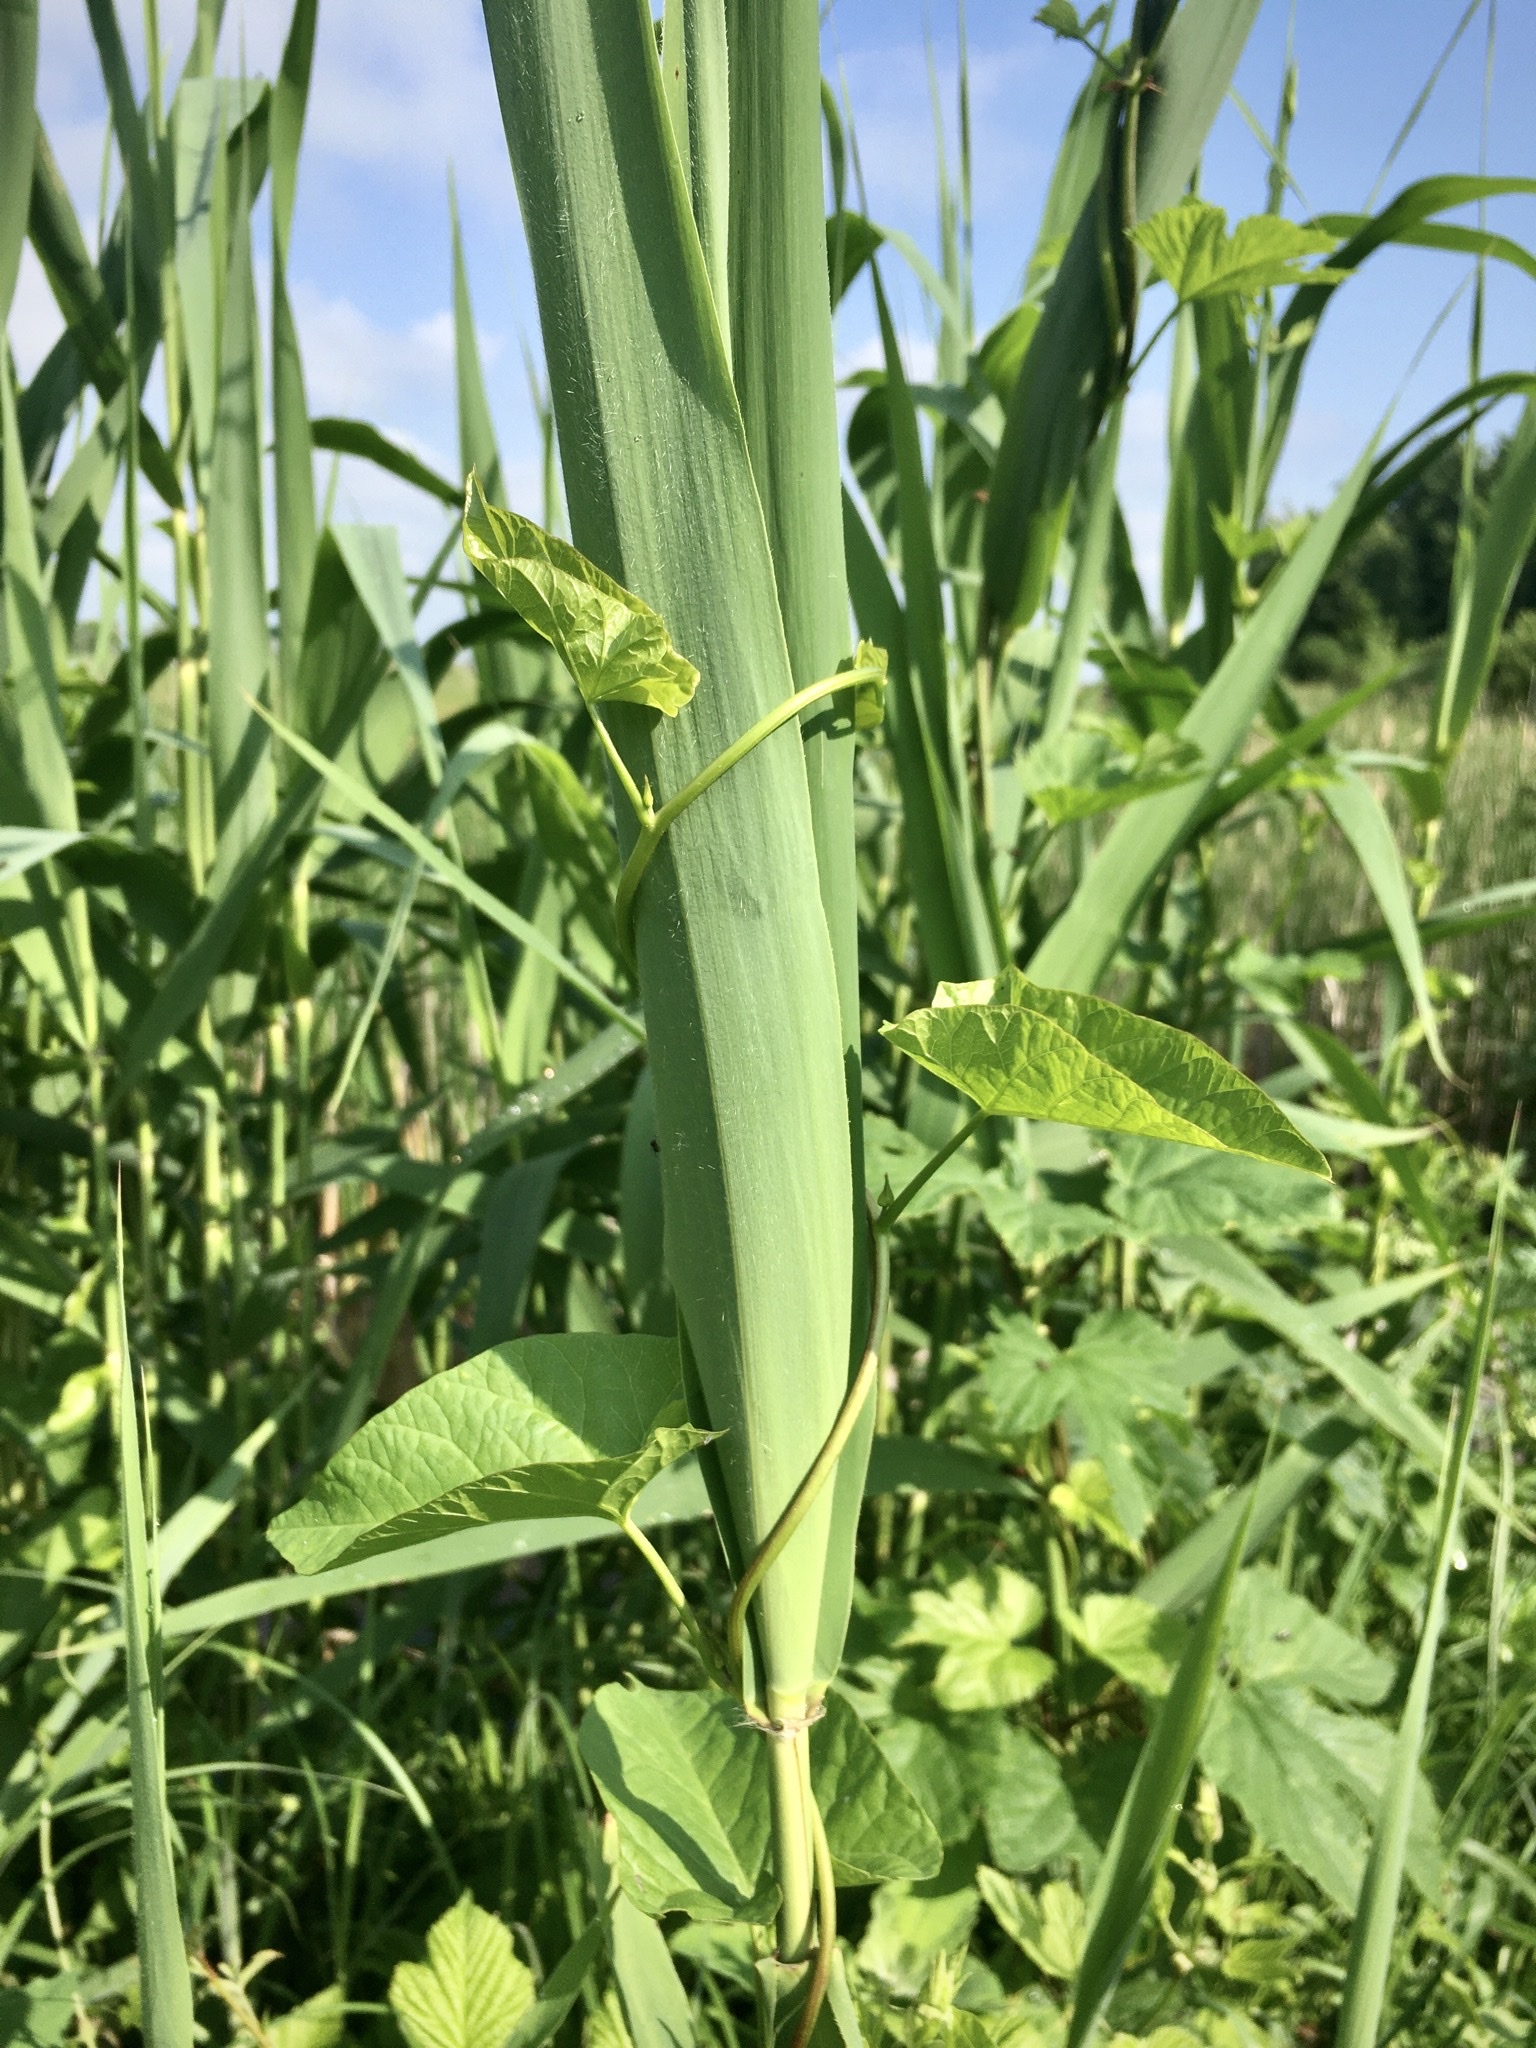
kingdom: Plantae
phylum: Tracheophyta
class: Magnoliopsida
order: Solanales
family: Convolvulaceae
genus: Calystegia
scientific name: Calystegia sepium
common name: Hedge bindweed
